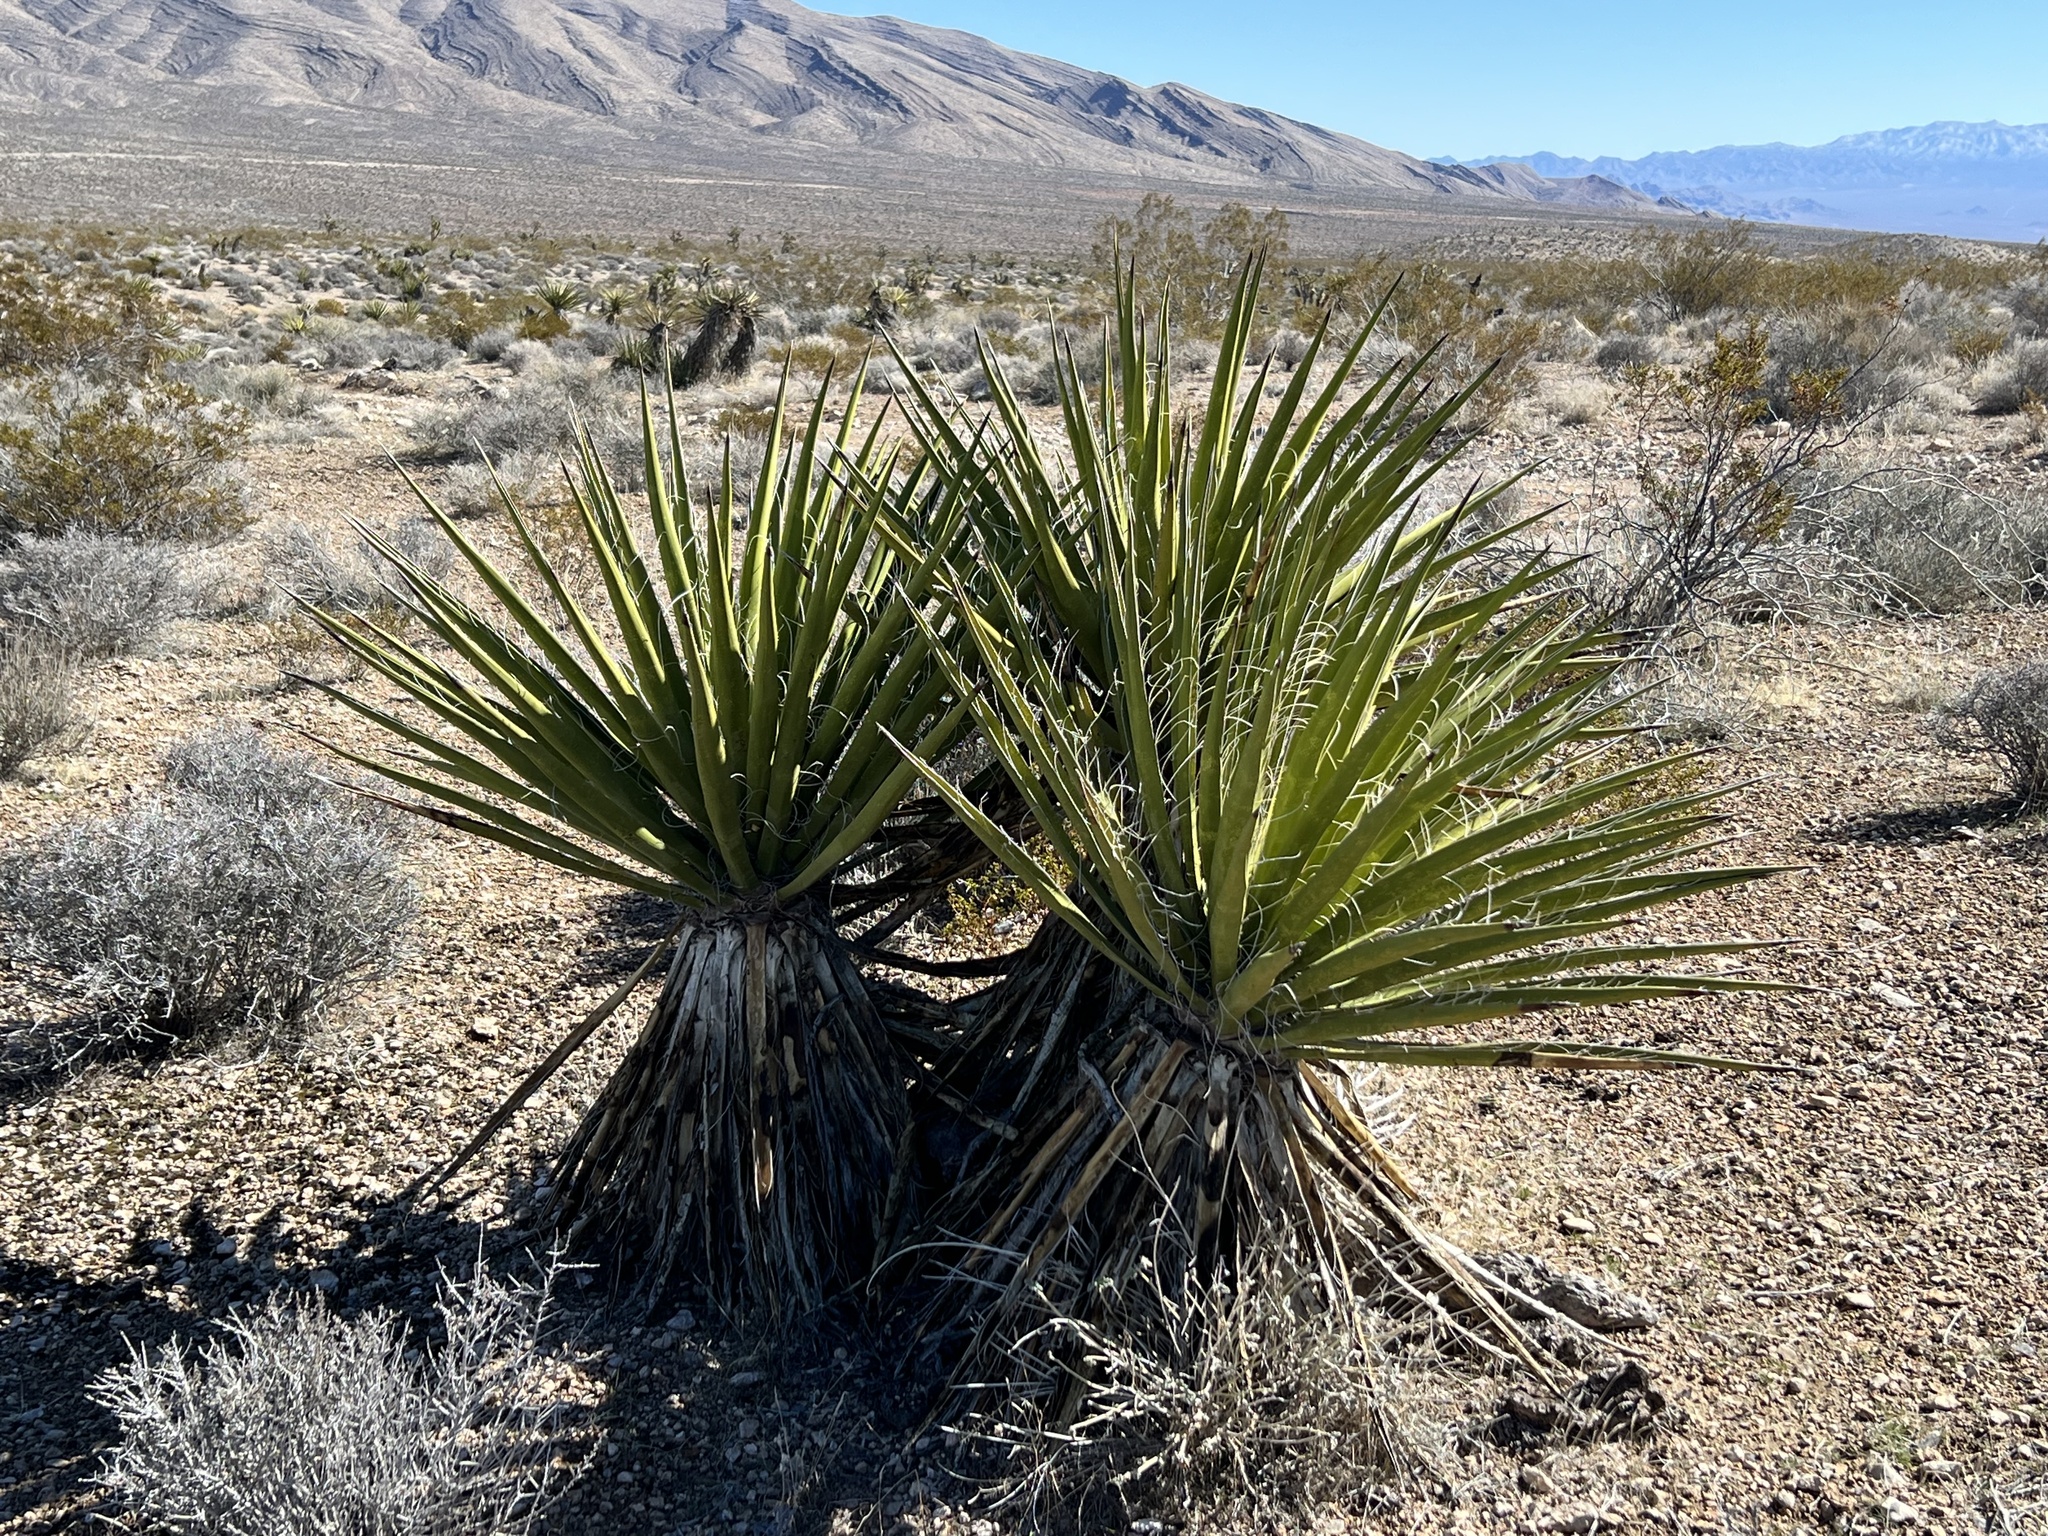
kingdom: Plantae
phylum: Tracheophyta
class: Liliopsida
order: Asparagales
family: Asparagaceae
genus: Yucca
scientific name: Yucca schidigera
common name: Mojave yucca
